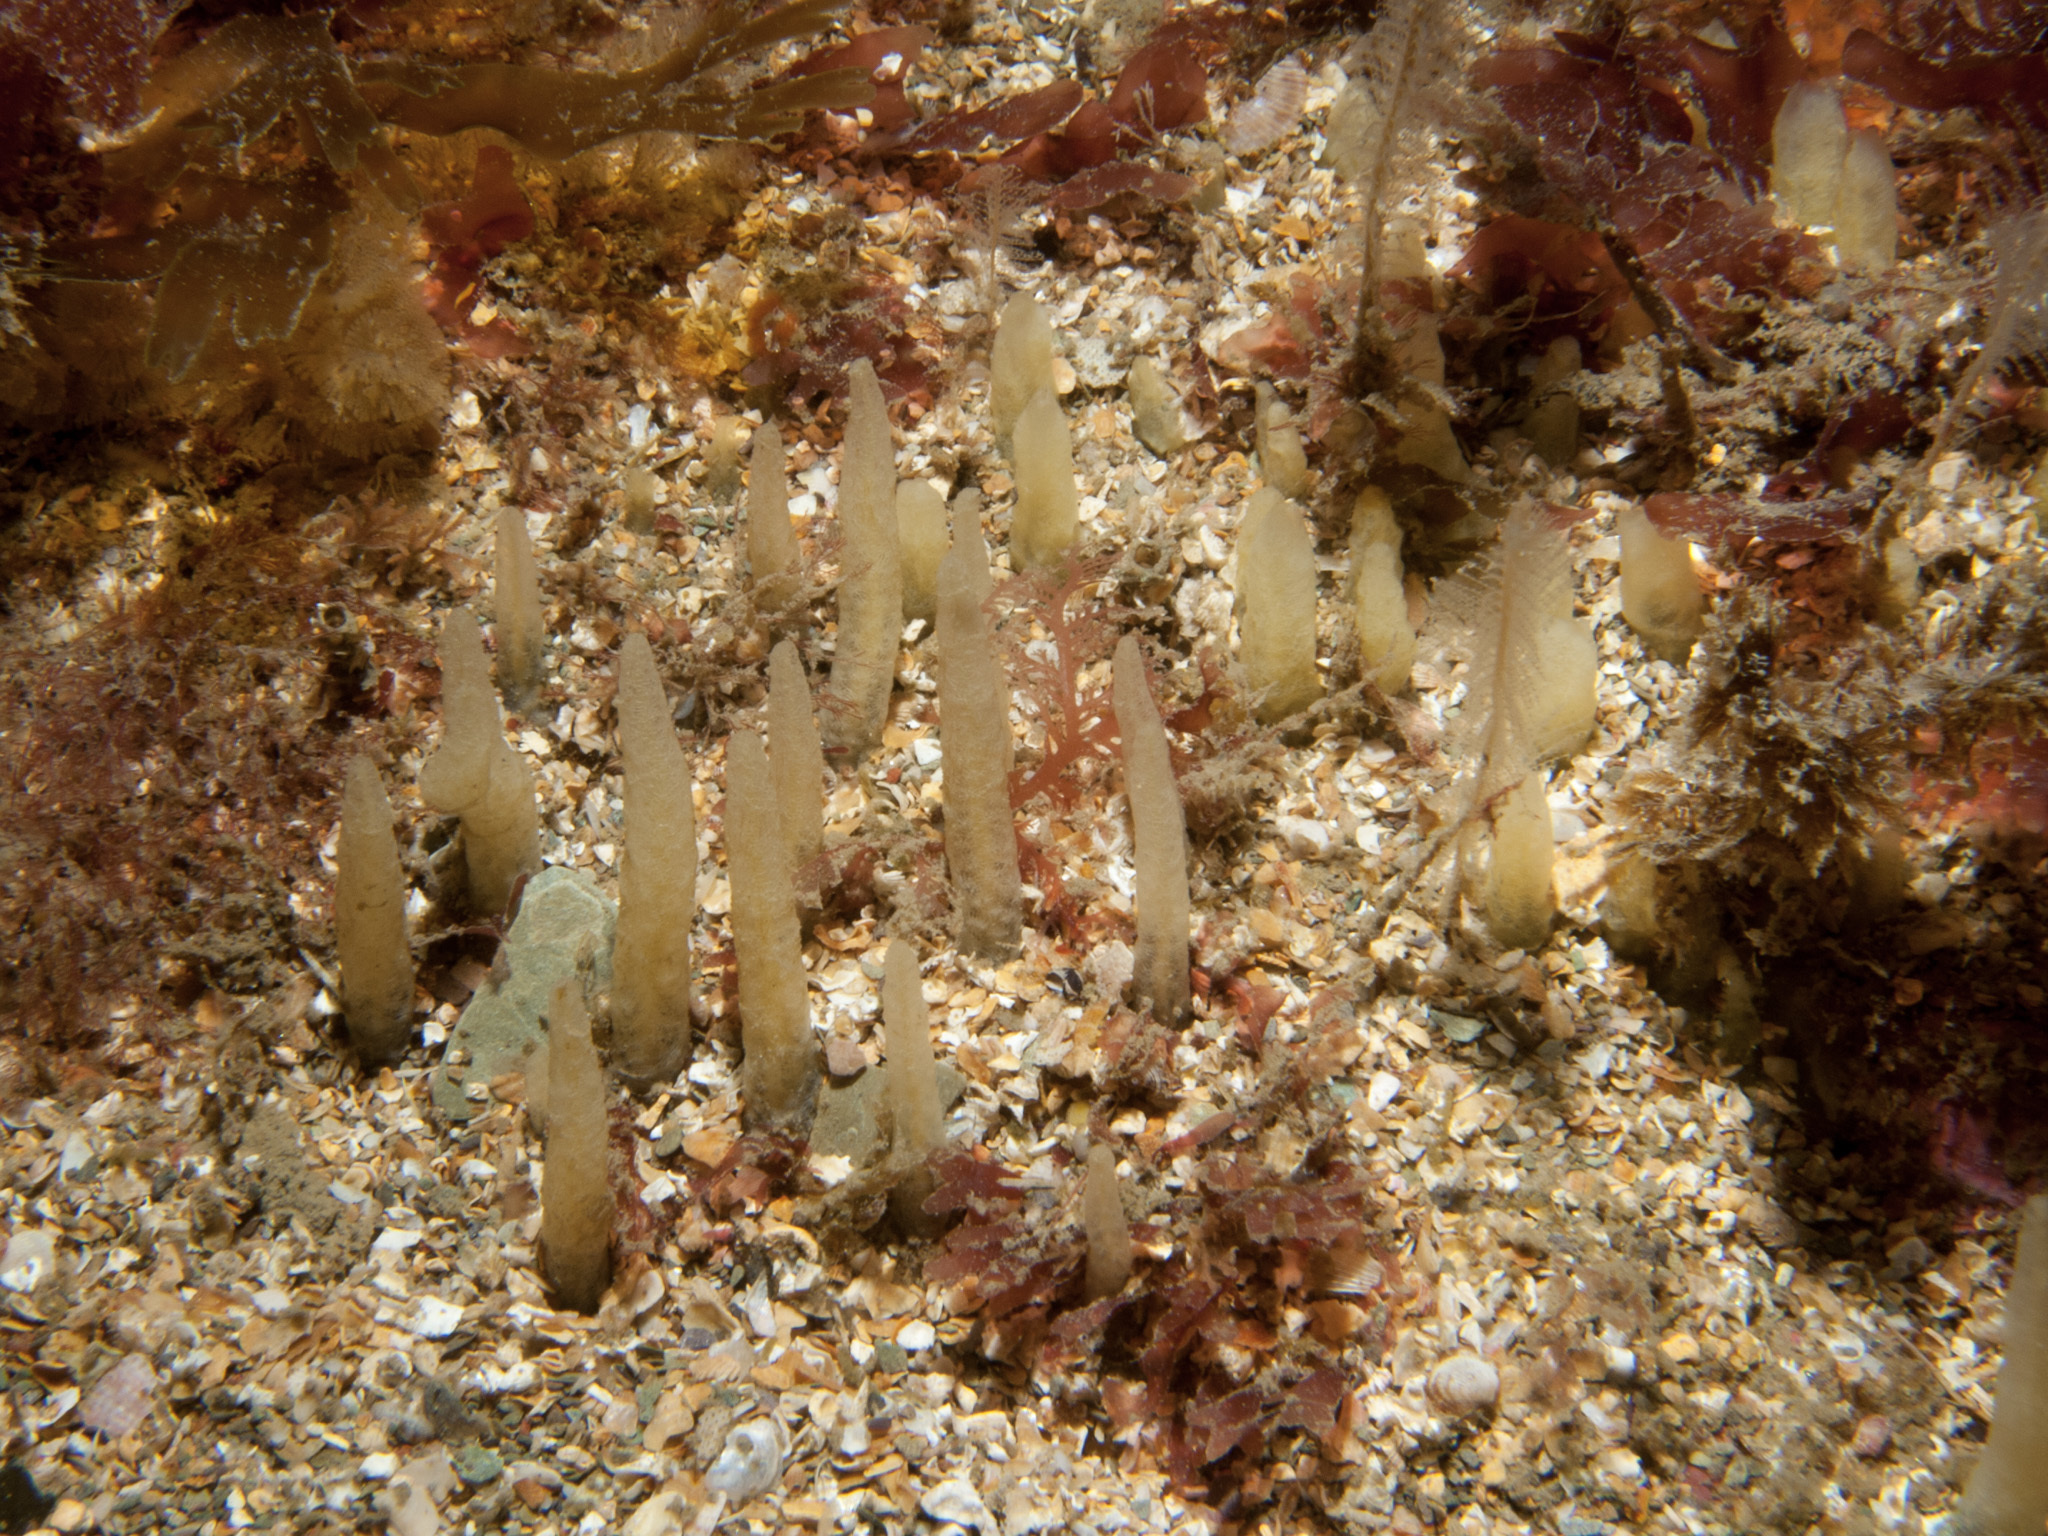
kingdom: Animalia
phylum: Porifera
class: Demospongiae
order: Suberitida
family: Halichondriidae
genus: Ciocalypta
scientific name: Ciocalypta penicillus
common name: Brush sponge
